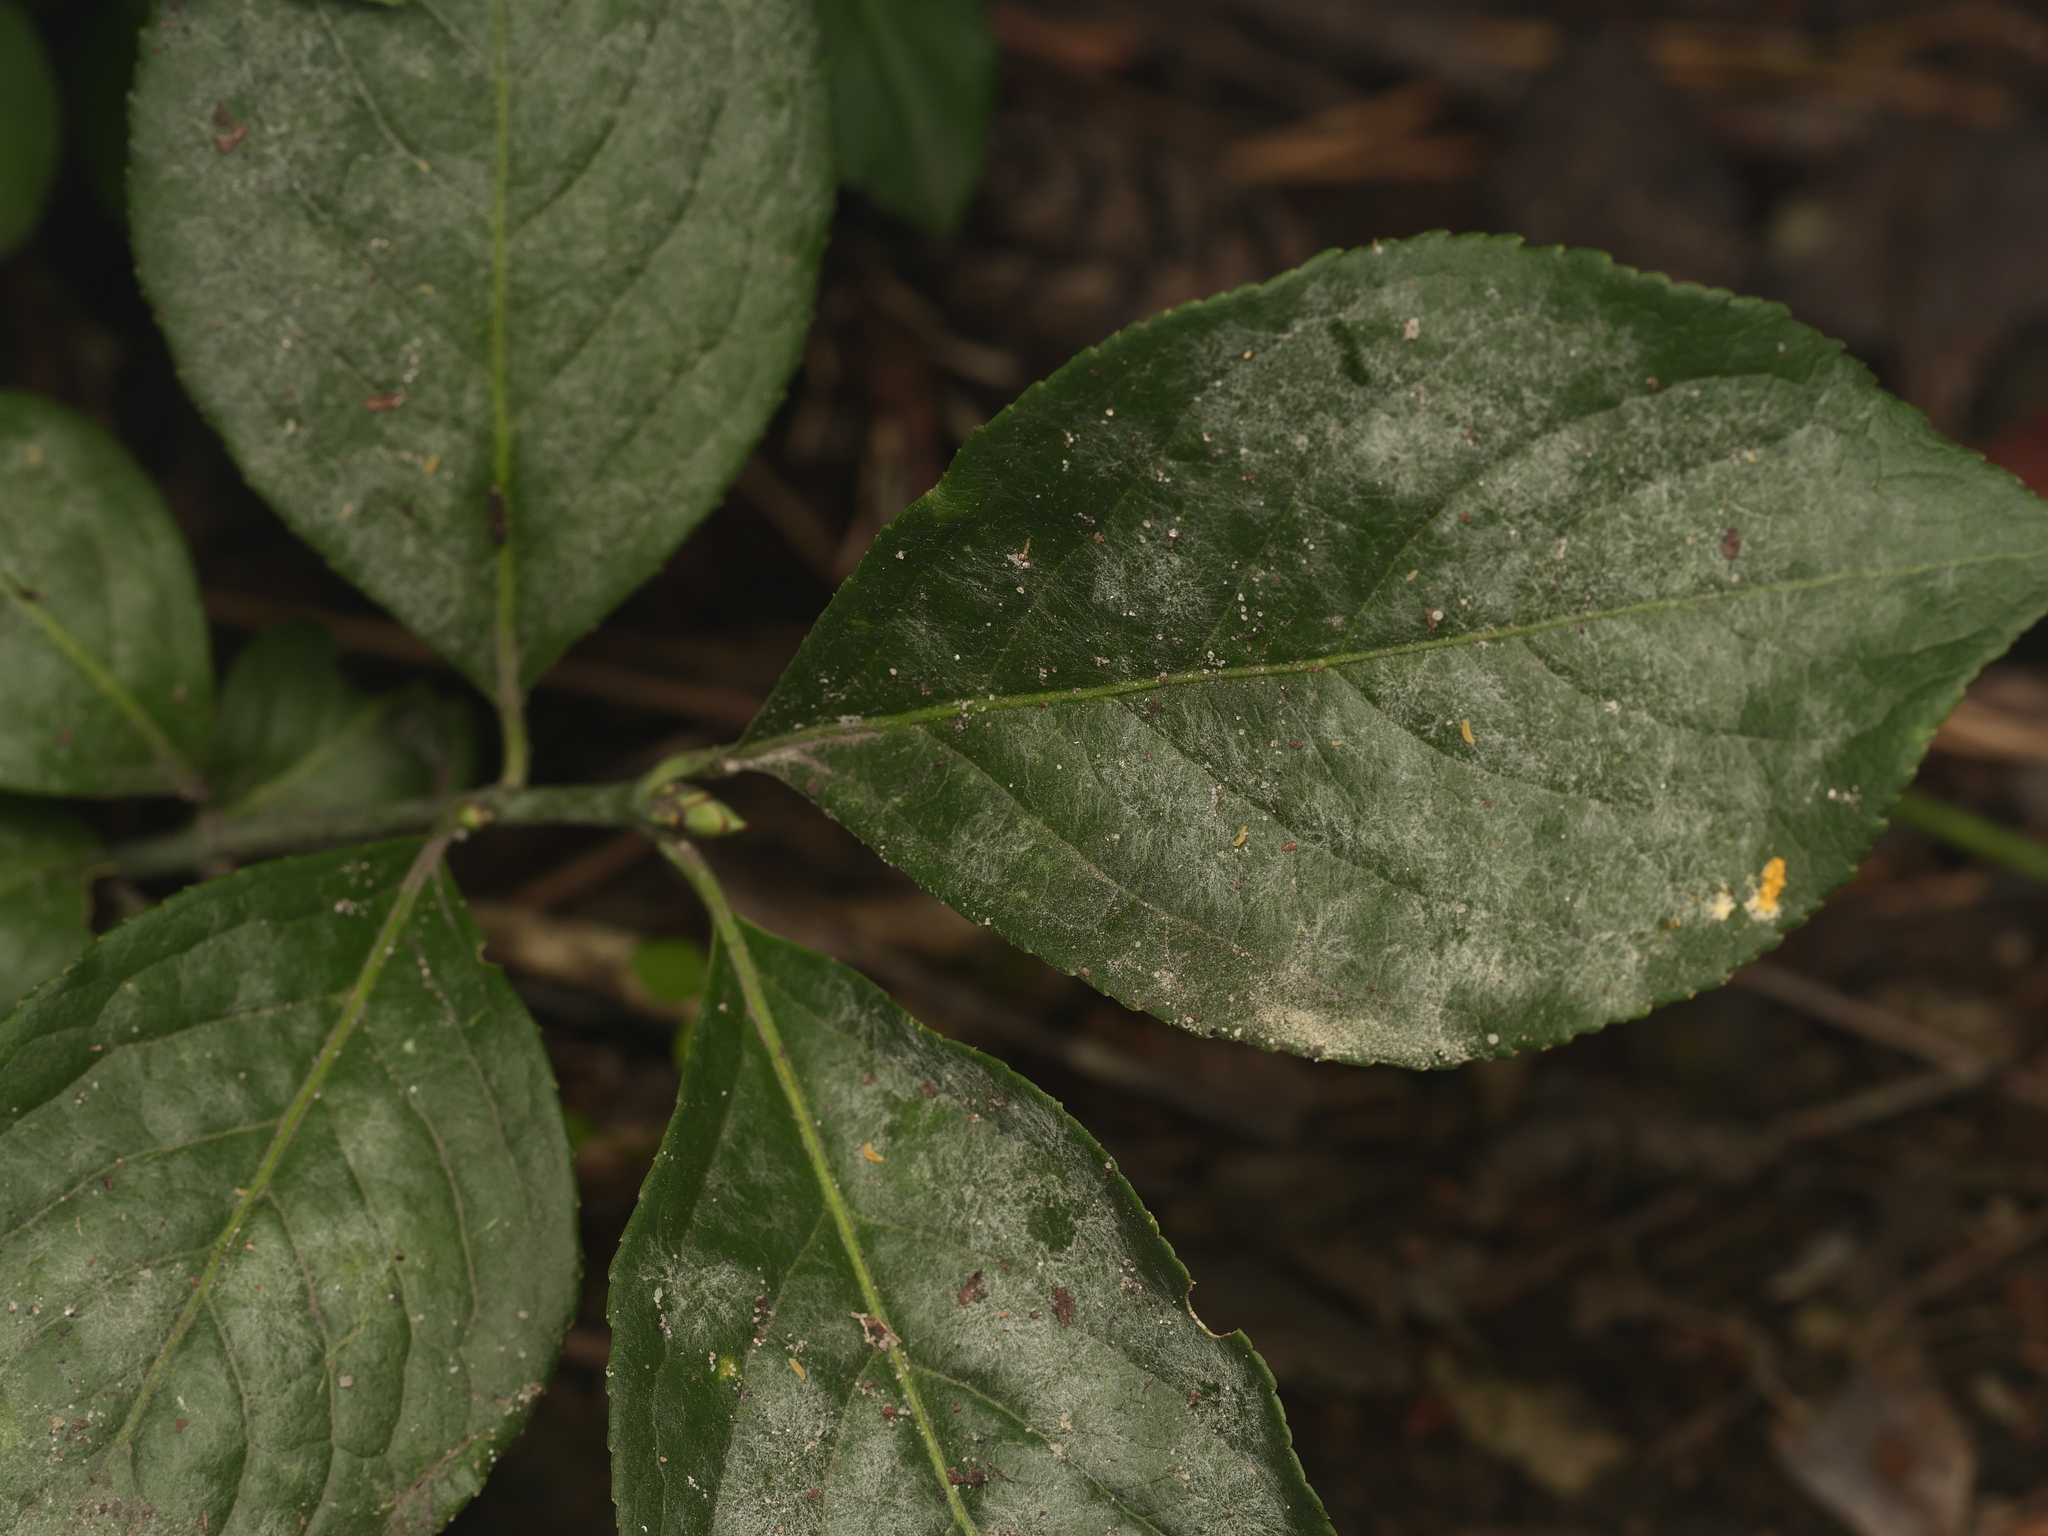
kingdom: Fungi
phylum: Ascomycota
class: Leotiomycetes
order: Helotiales
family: Erysiphaceae
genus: Erysiphe
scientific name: Erysiphe euonymi
